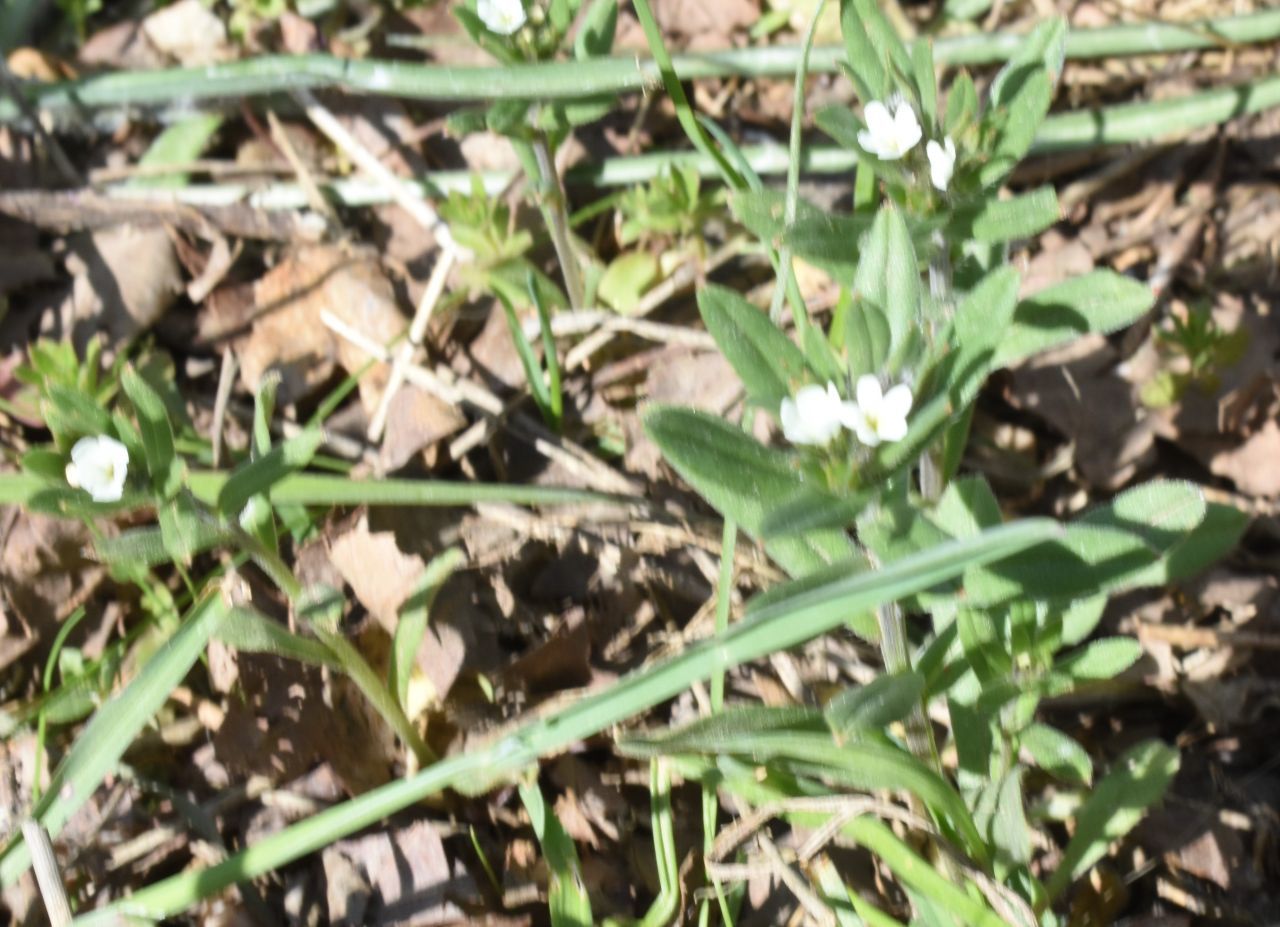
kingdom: Plantae
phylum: Tracheophyta
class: Magnoliopsida
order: Boraginales
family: Boraginaceae
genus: Buglossoides
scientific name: Buglossoides arvensis
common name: Corn gromwell
